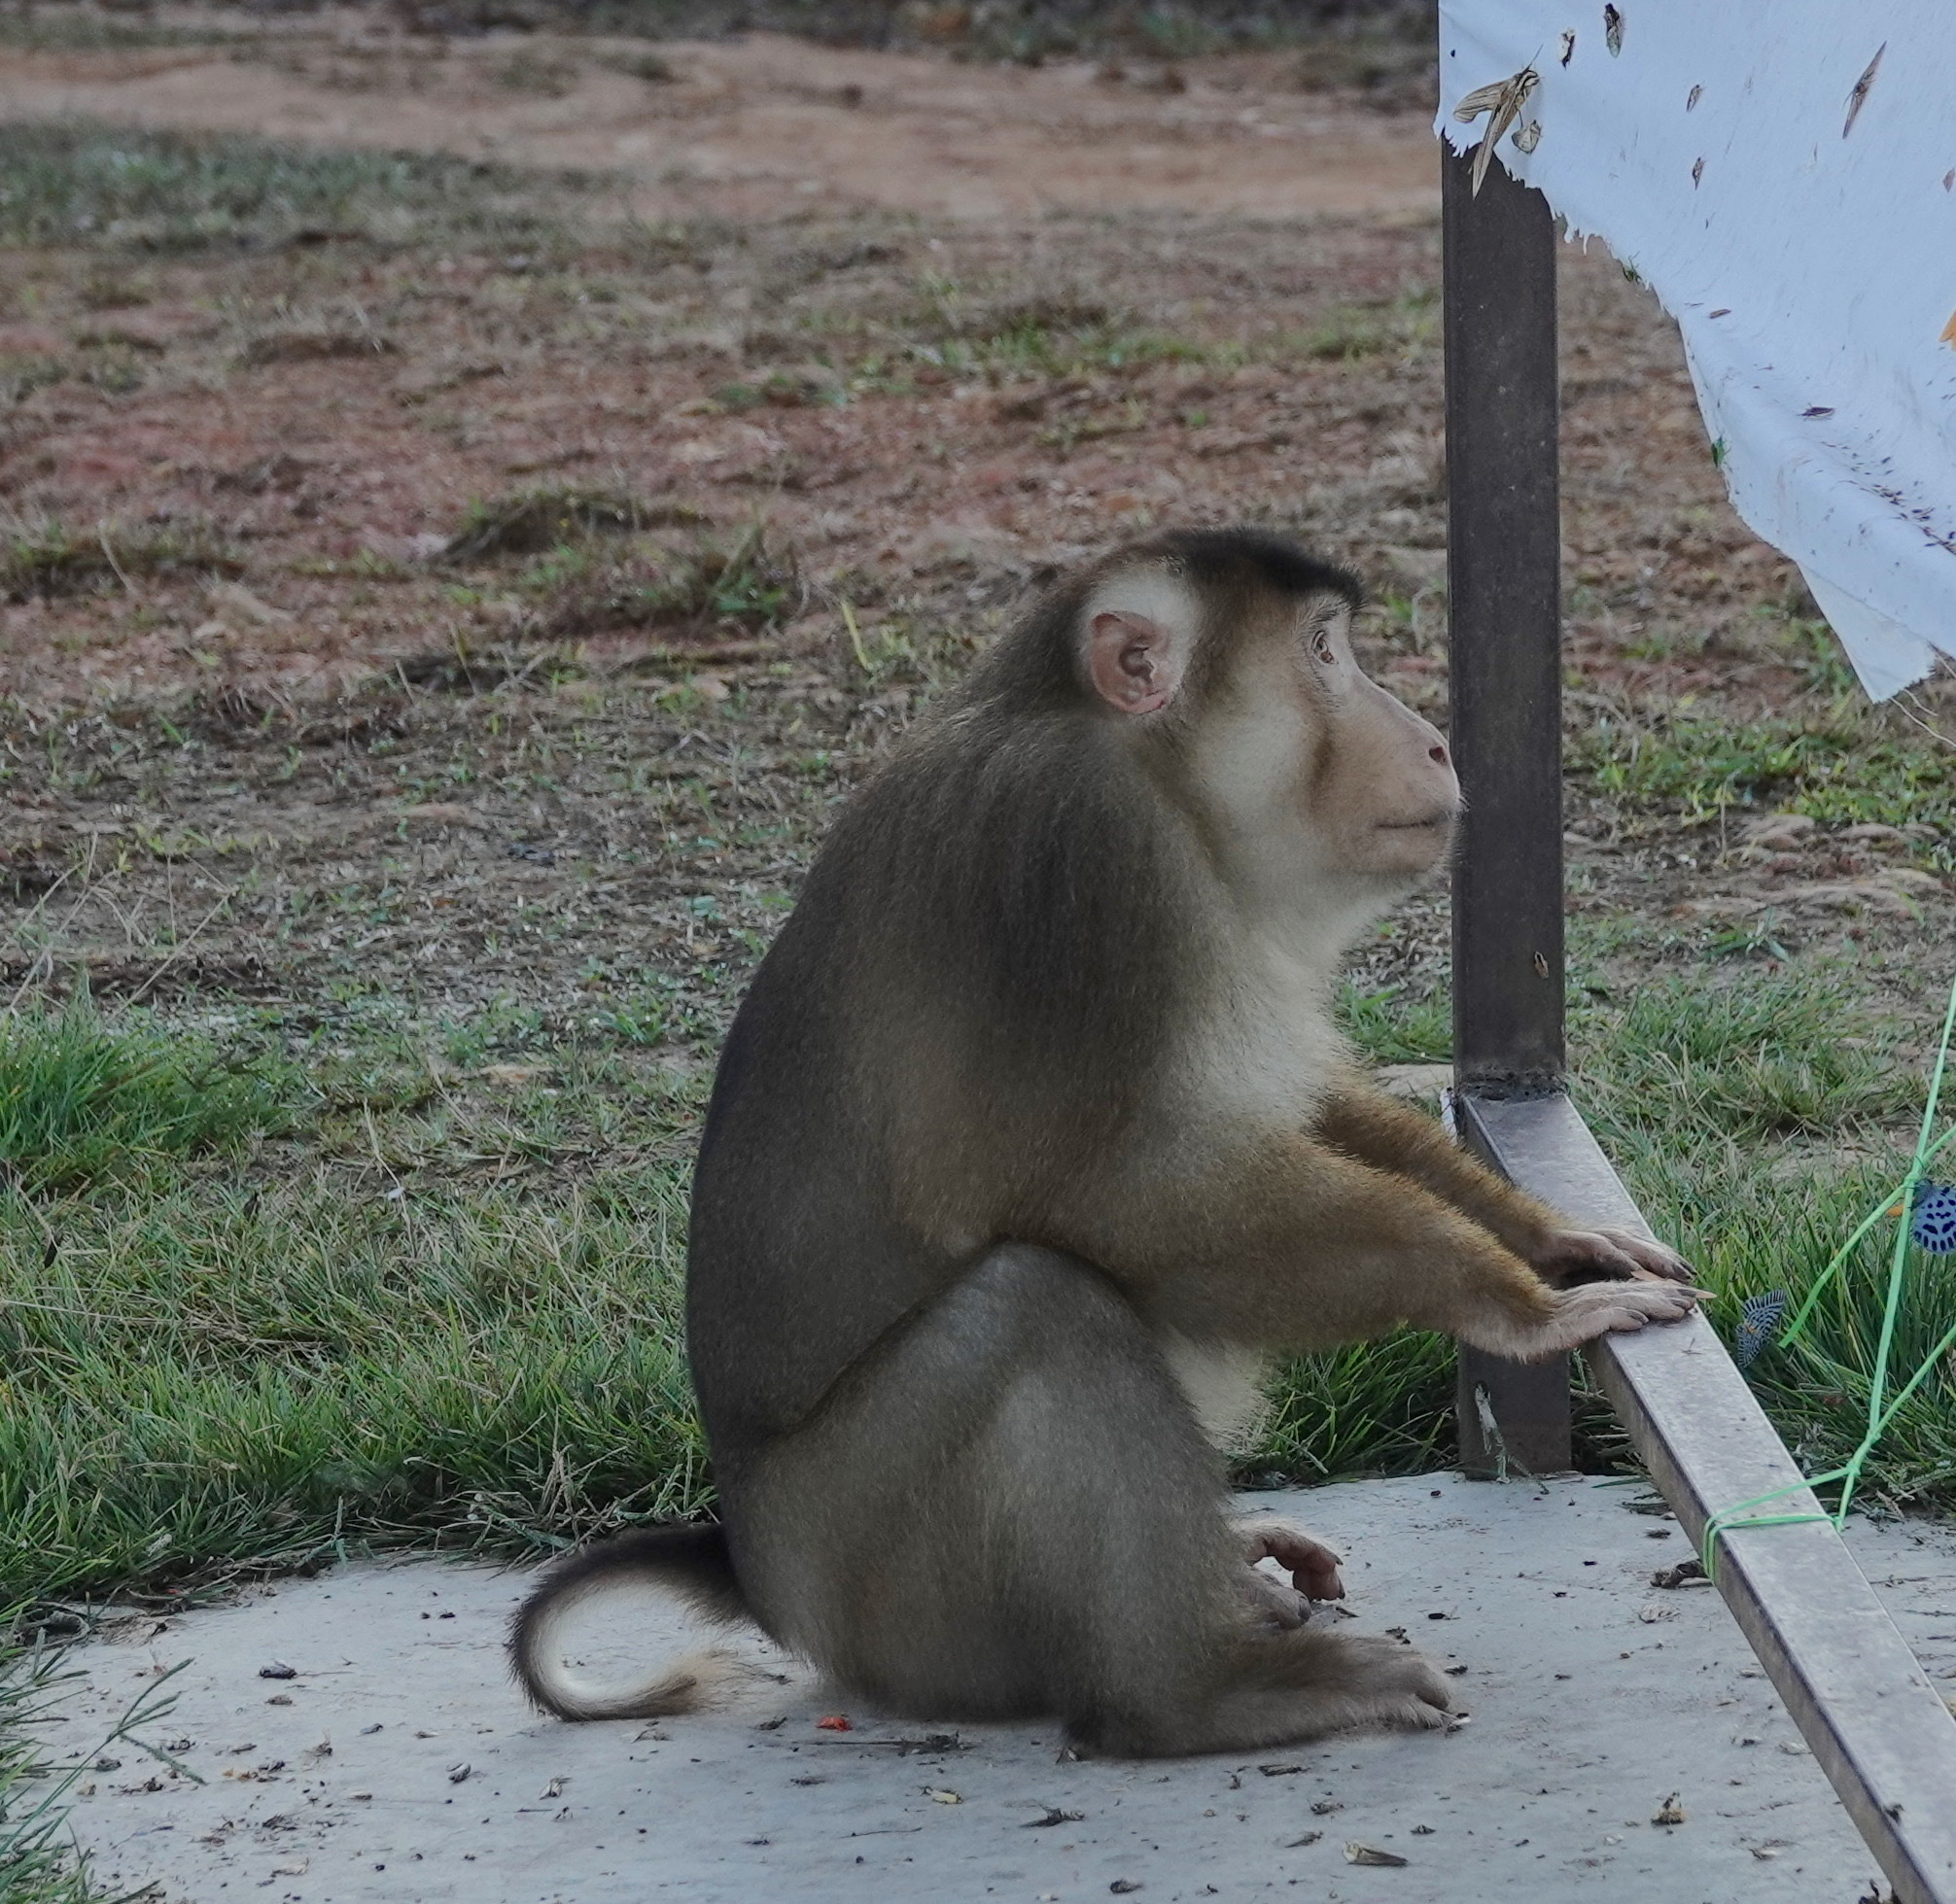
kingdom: Animalia
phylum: Chordata
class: Mammalia
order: Primates
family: Cercopithecidae
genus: Macaca
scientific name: Macaca nemestrina
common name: Southern pig-tailed macaque
